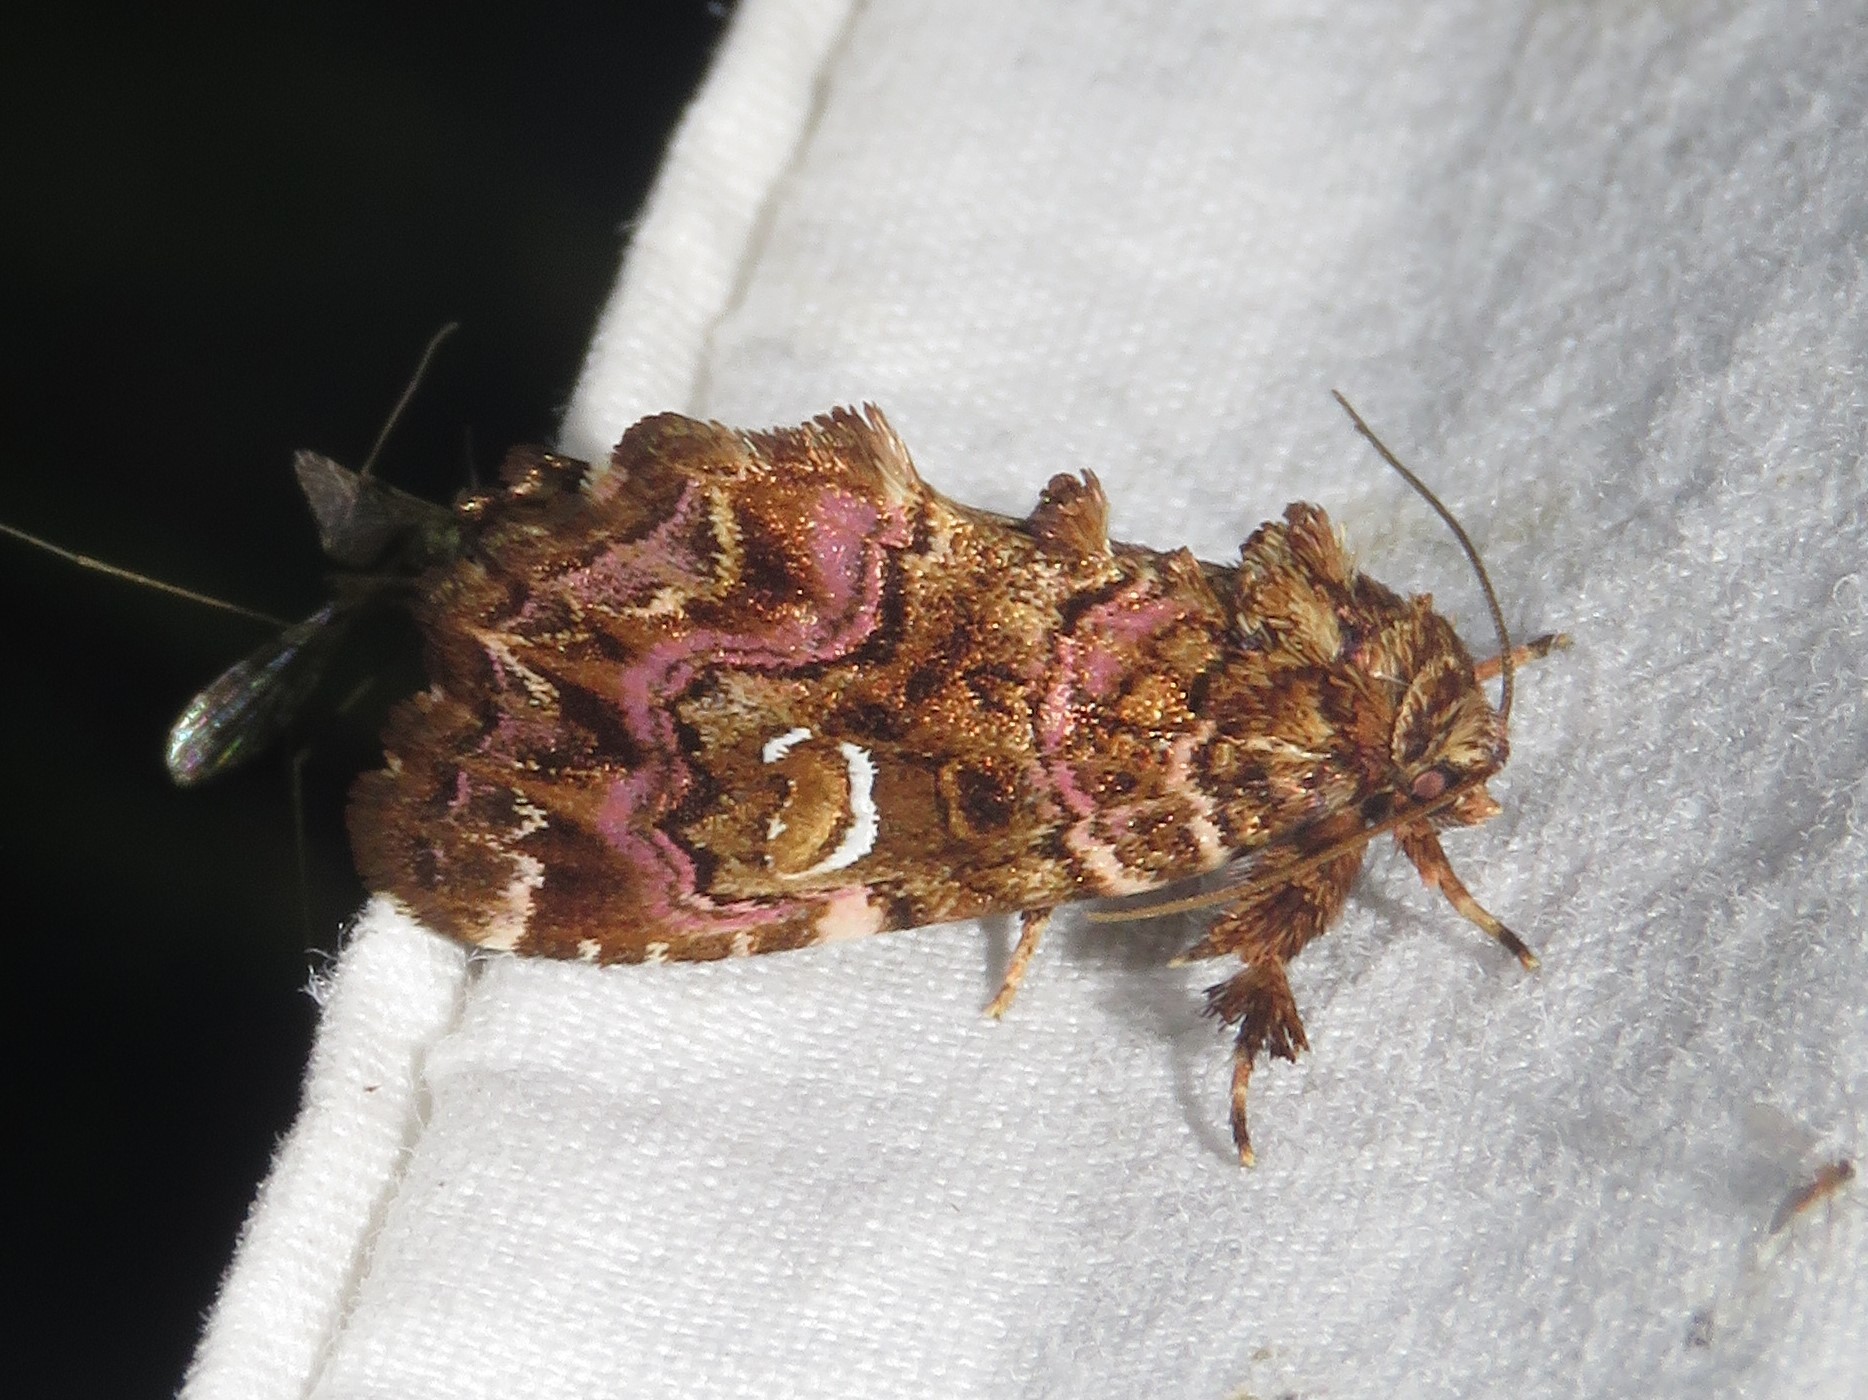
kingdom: Animalia
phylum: Arthropoda
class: Insecta
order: Lepidoptera
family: Noctuidae
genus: Callopistria
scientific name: Callopistria mollissima
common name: Pink-shaded fern moth
